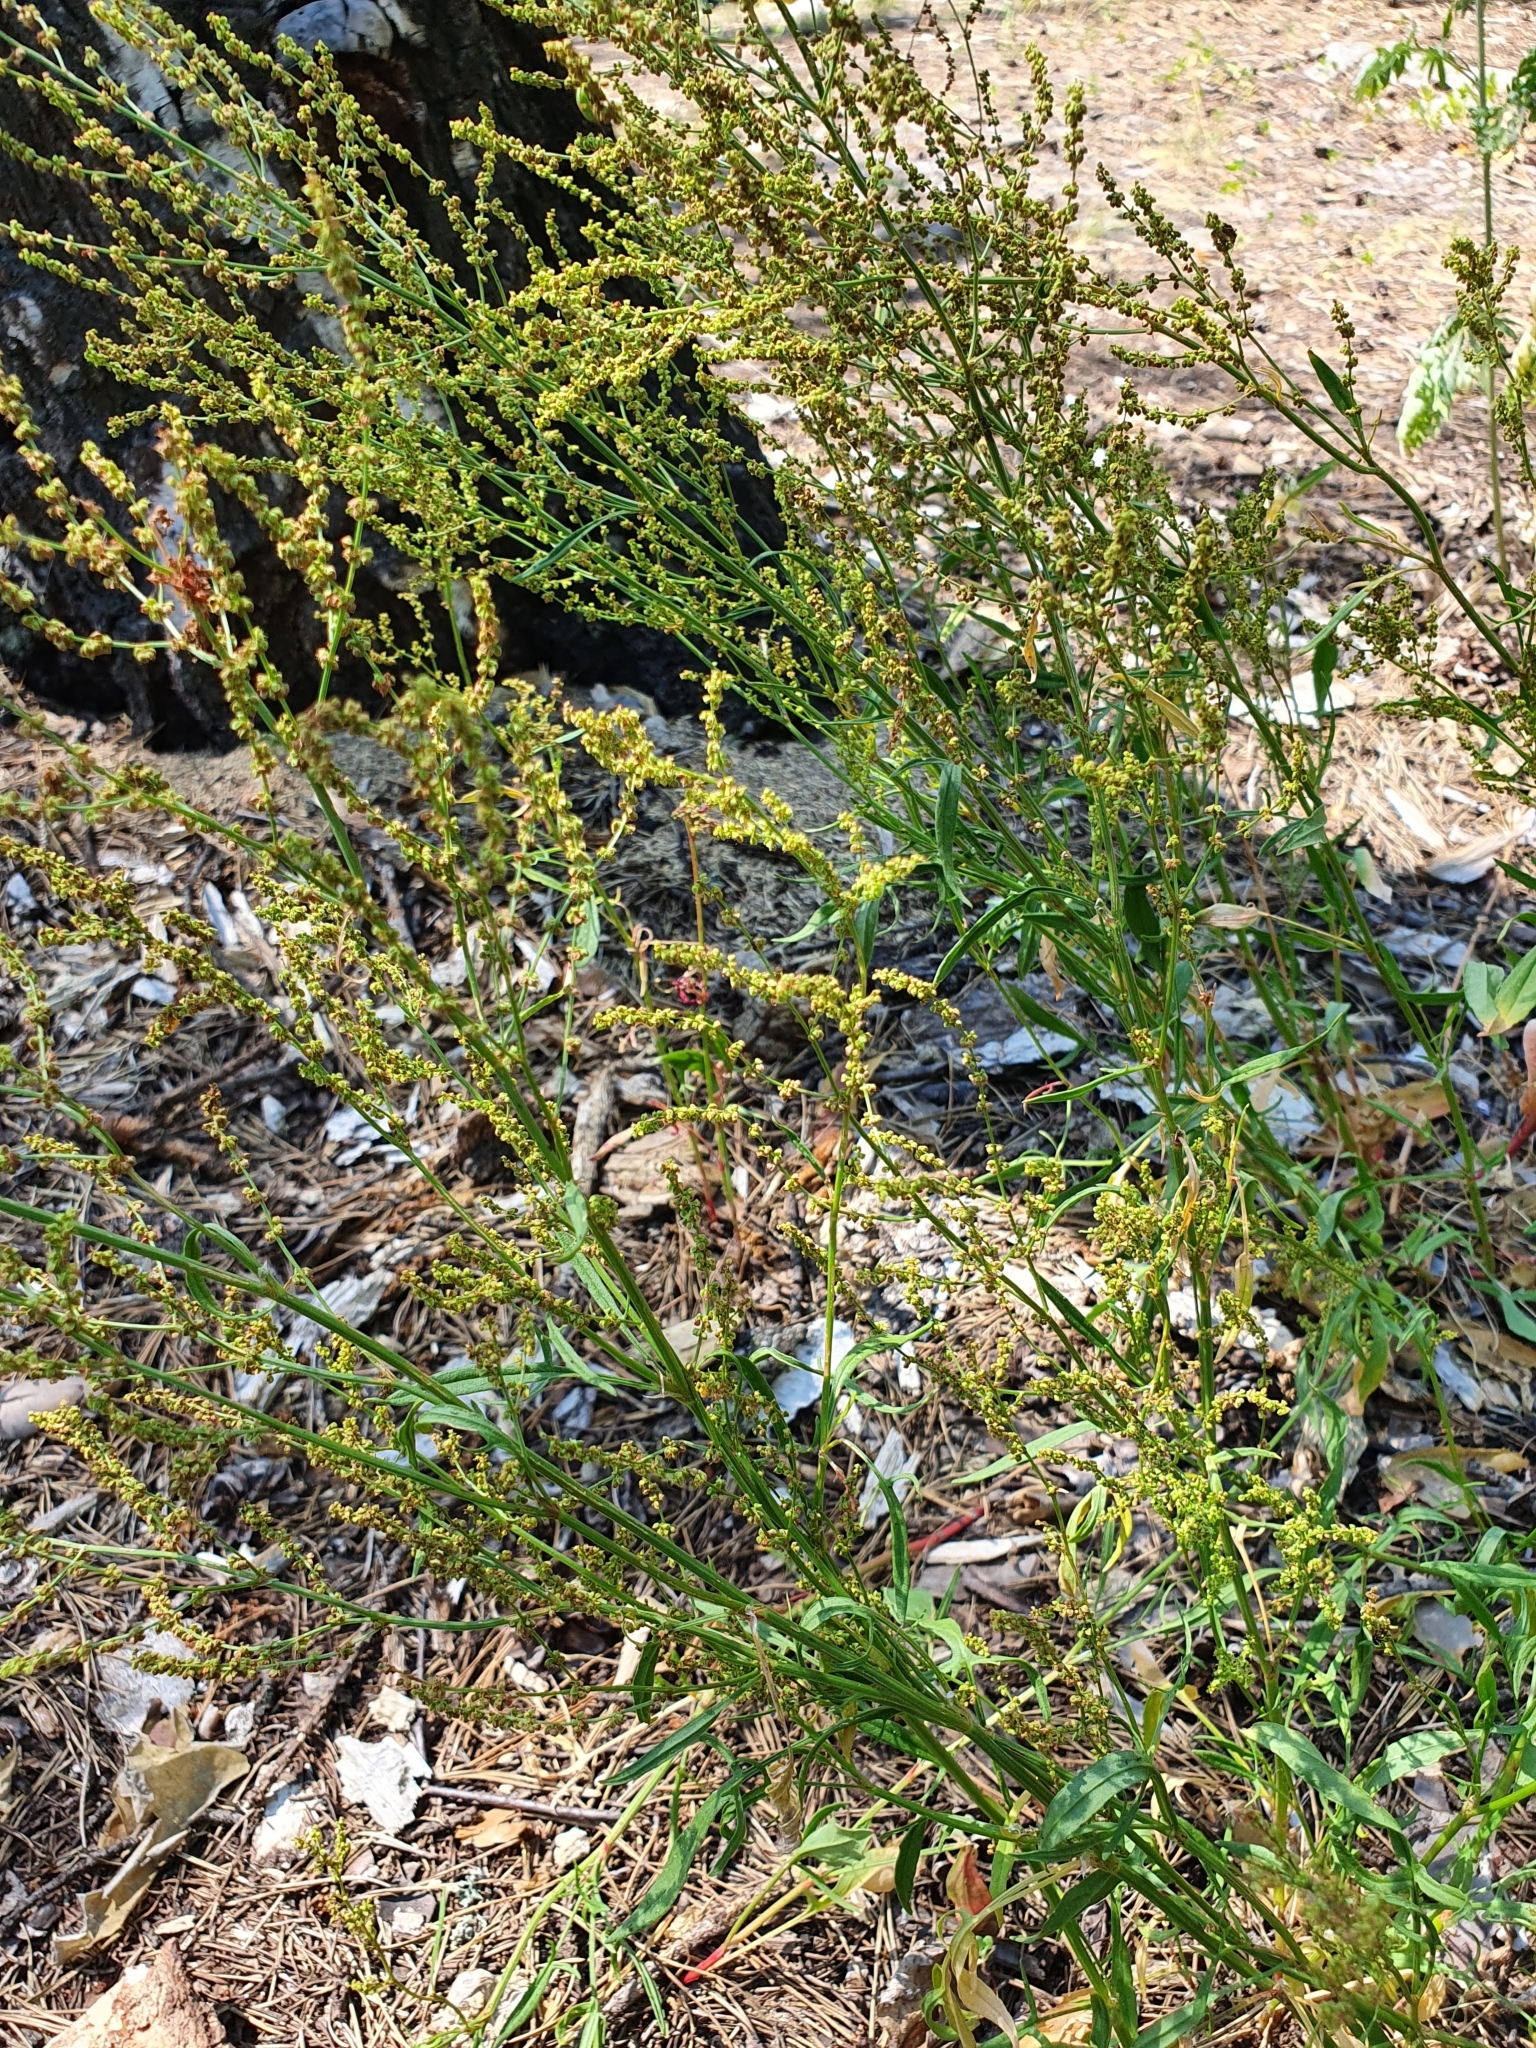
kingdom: Plantae
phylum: Tracheophyta
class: Magnoliopsida
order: Caryophyllales
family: Polygonaceae
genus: Rumex
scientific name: Rumex acetosella
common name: Common sheep sorrel
